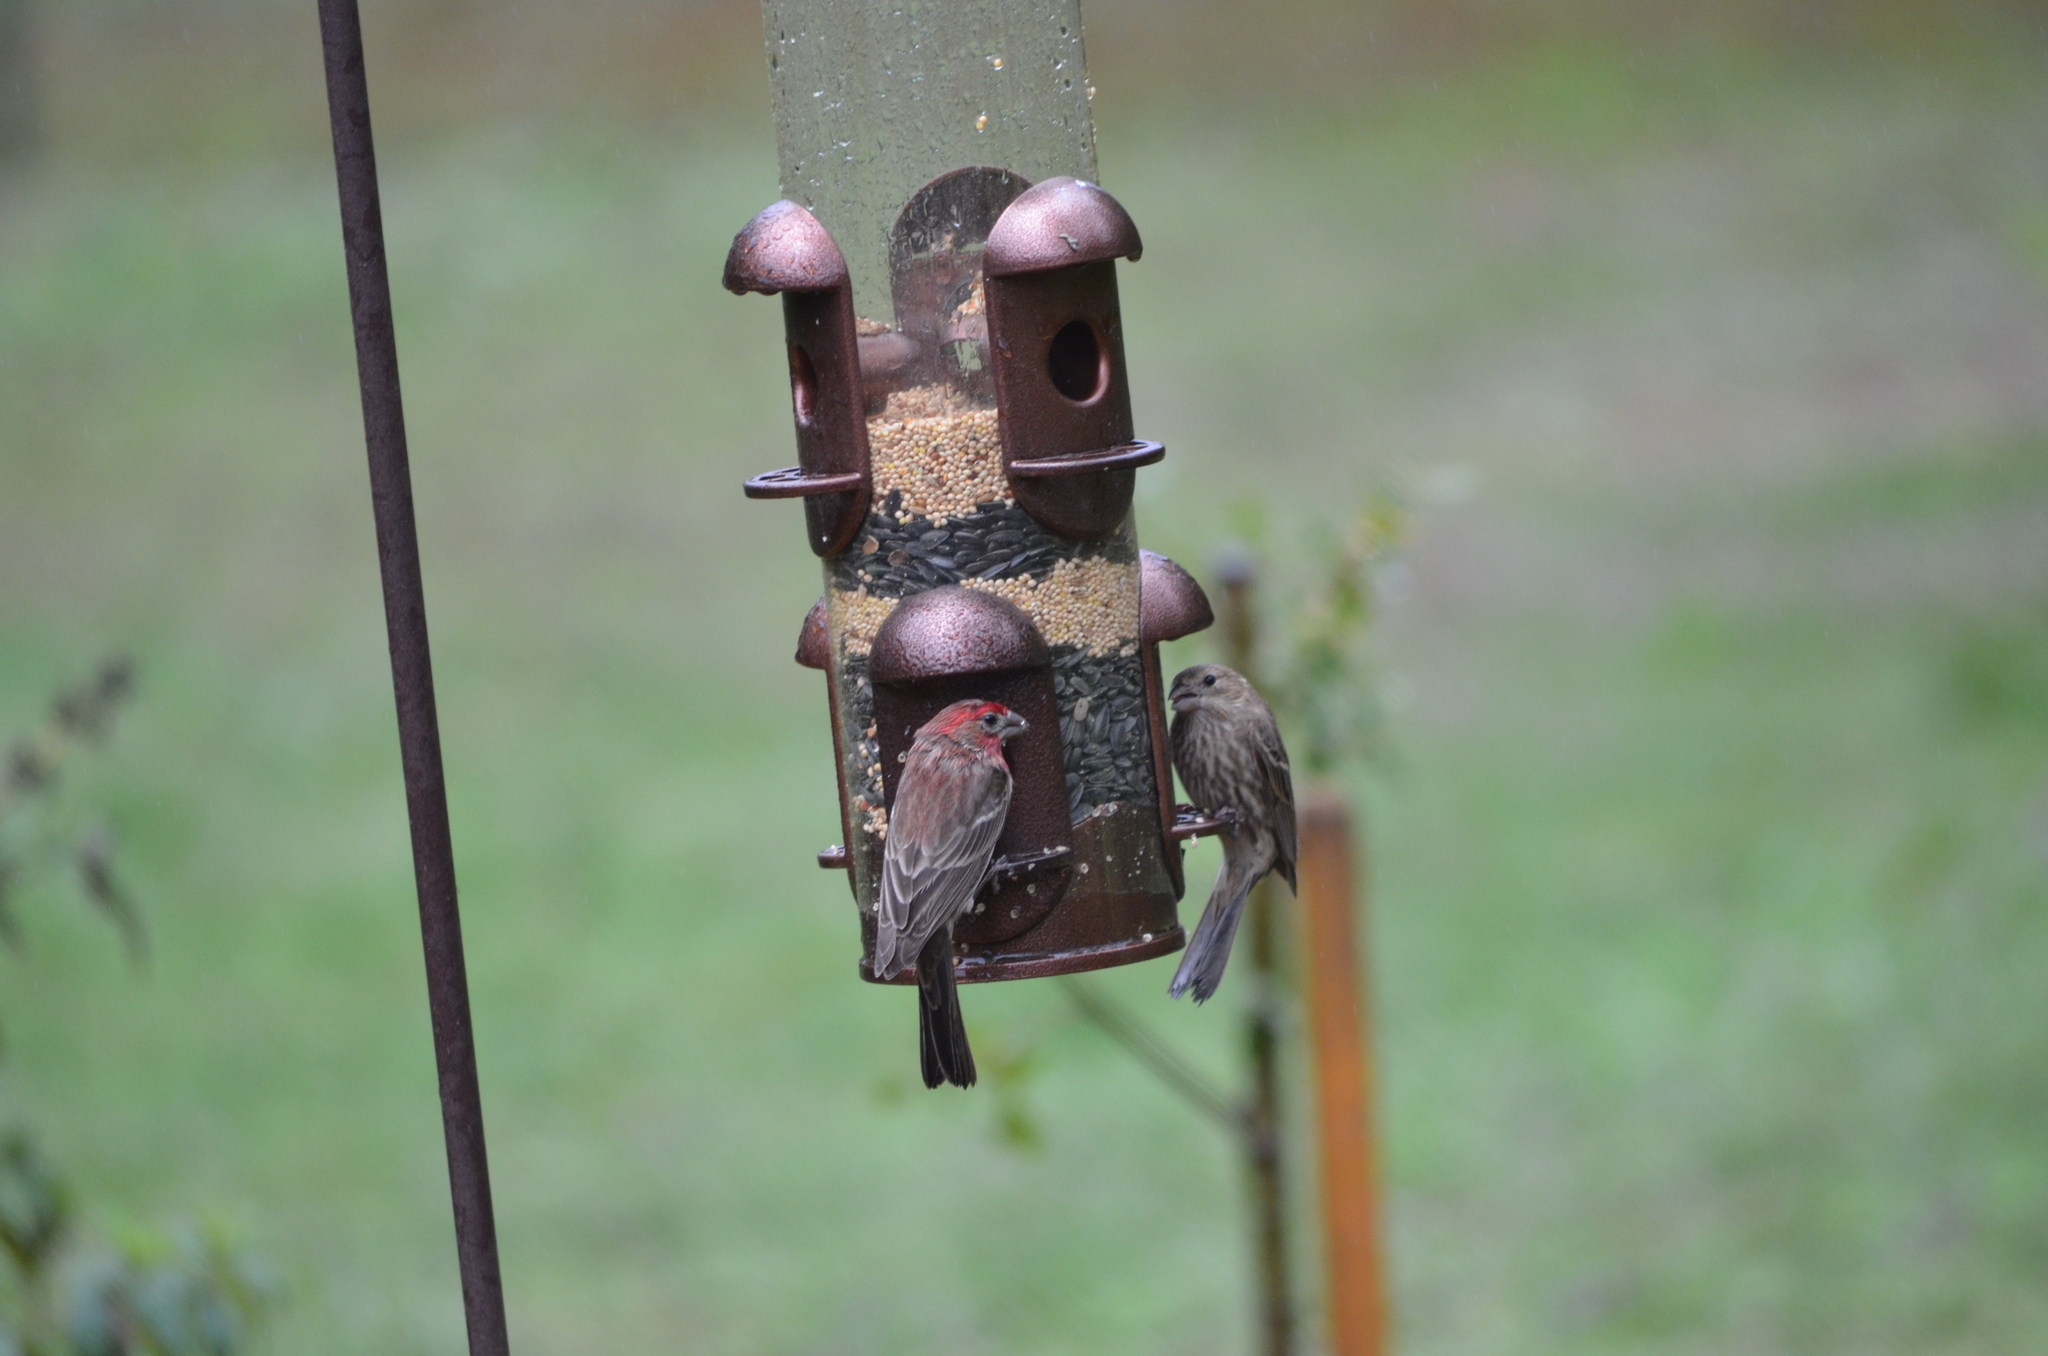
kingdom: Animalia
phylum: Chordata
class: Aves
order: Passeriformes
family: Fringillidae
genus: Haemorhous
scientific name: Haemorhous mexicanus
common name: House finch
